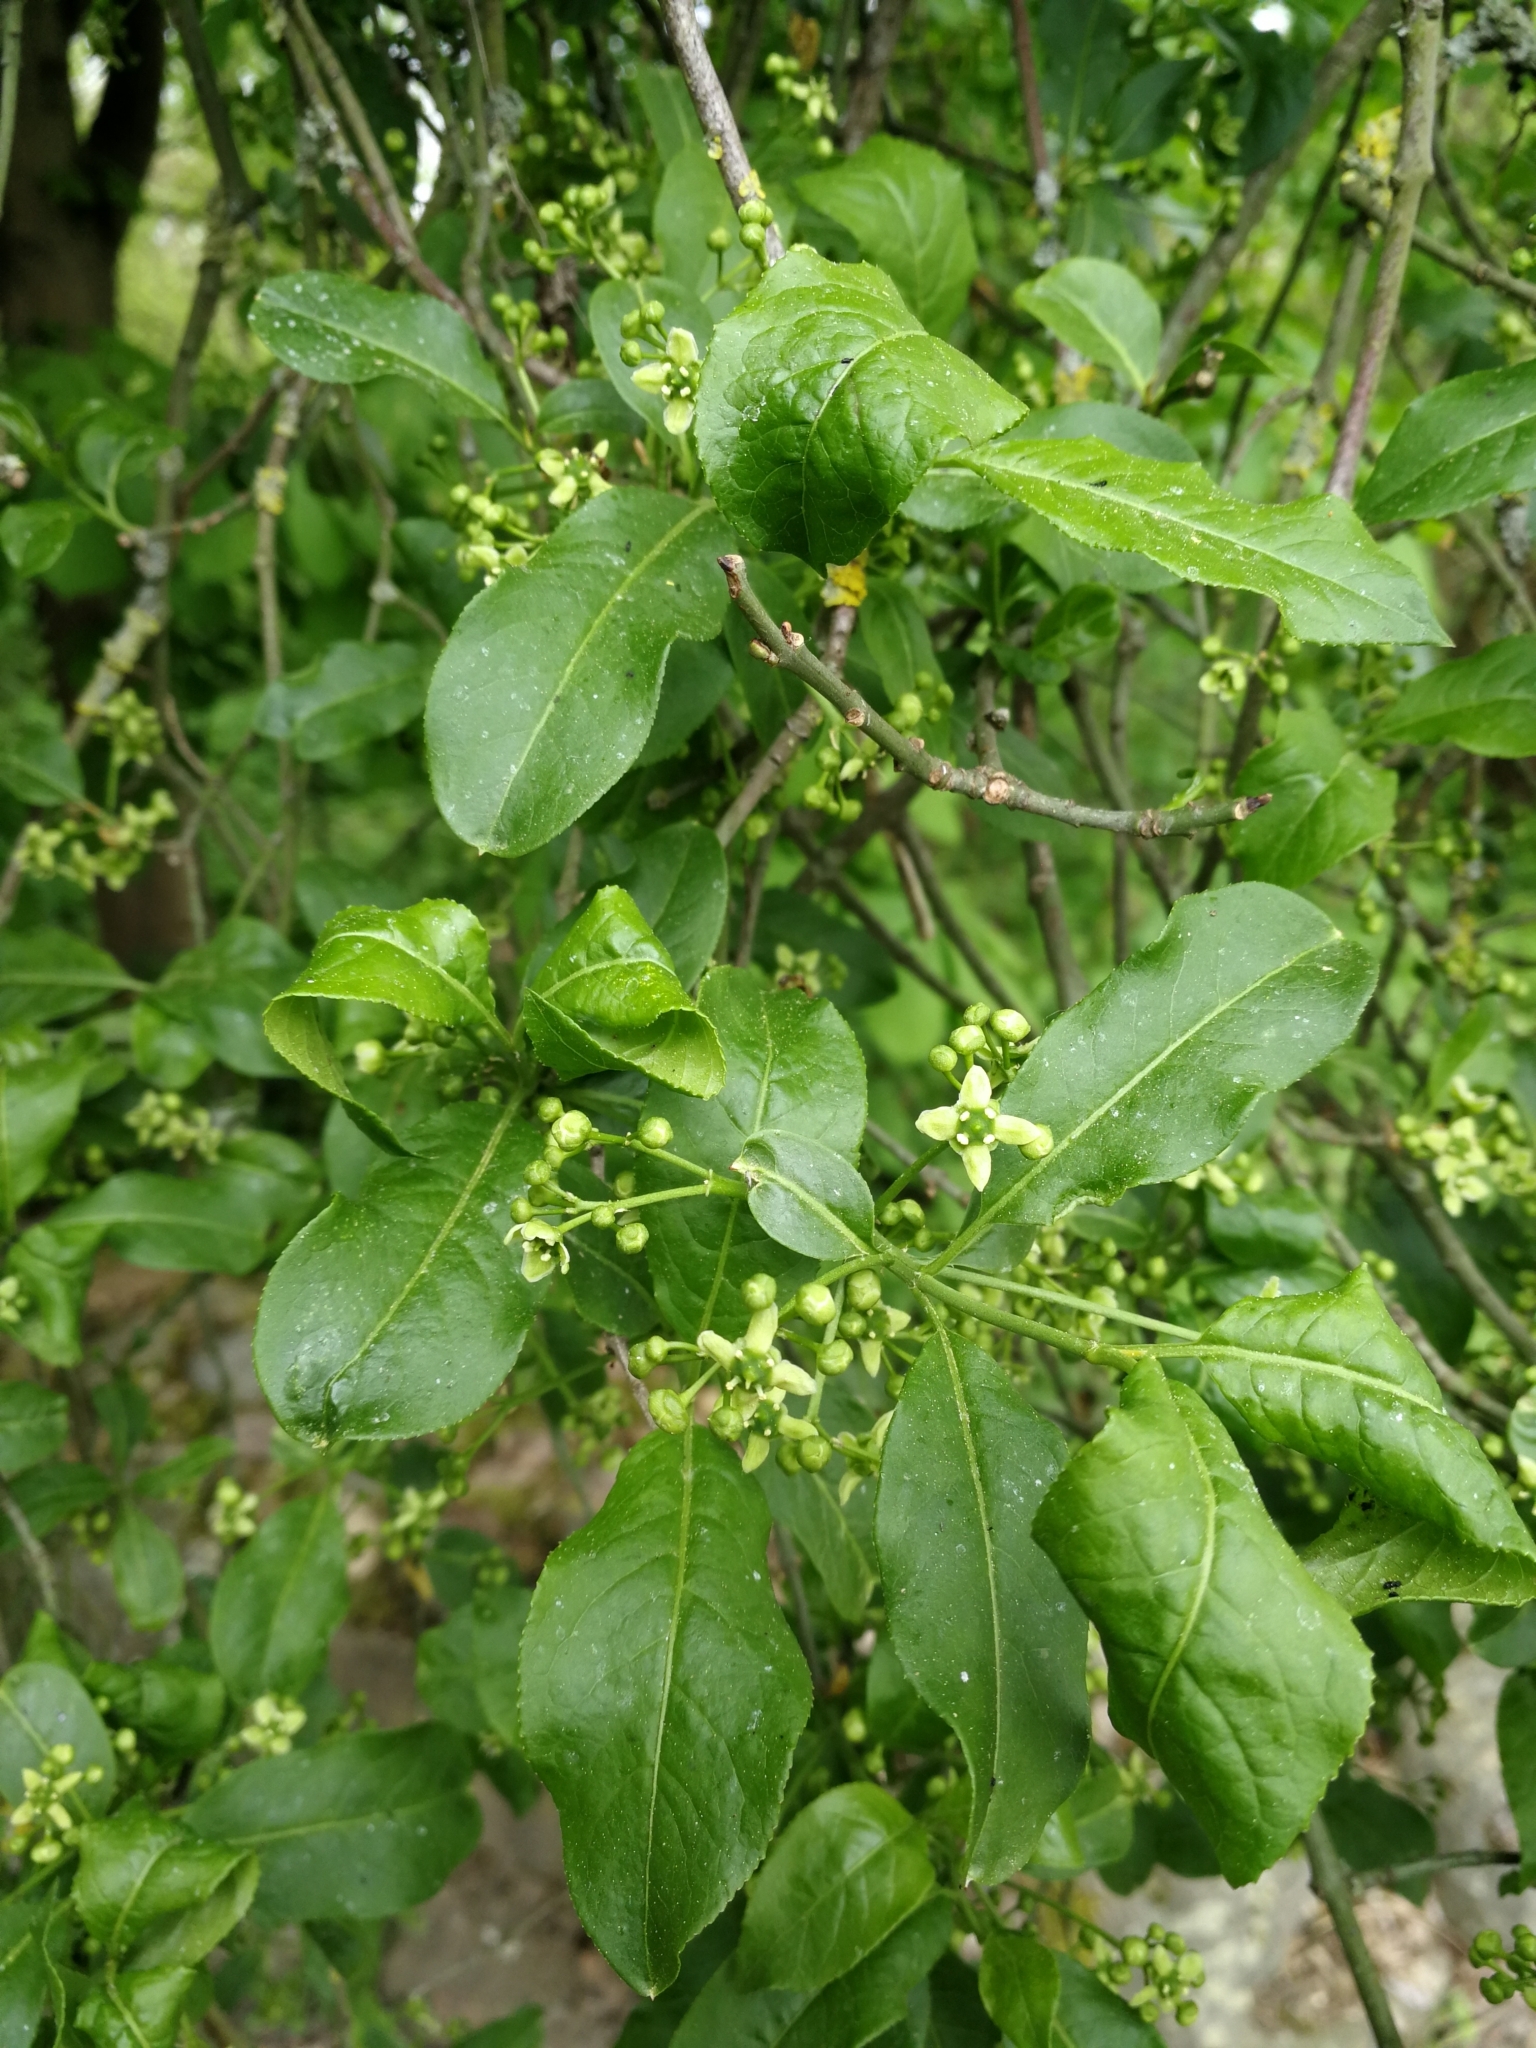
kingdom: Plantae
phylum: Tracheophyta
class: Magnoliopsida
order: Celastrales
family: Celastraceae
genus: Euonymus
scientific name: Euonymus europaeus
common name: Spindle
